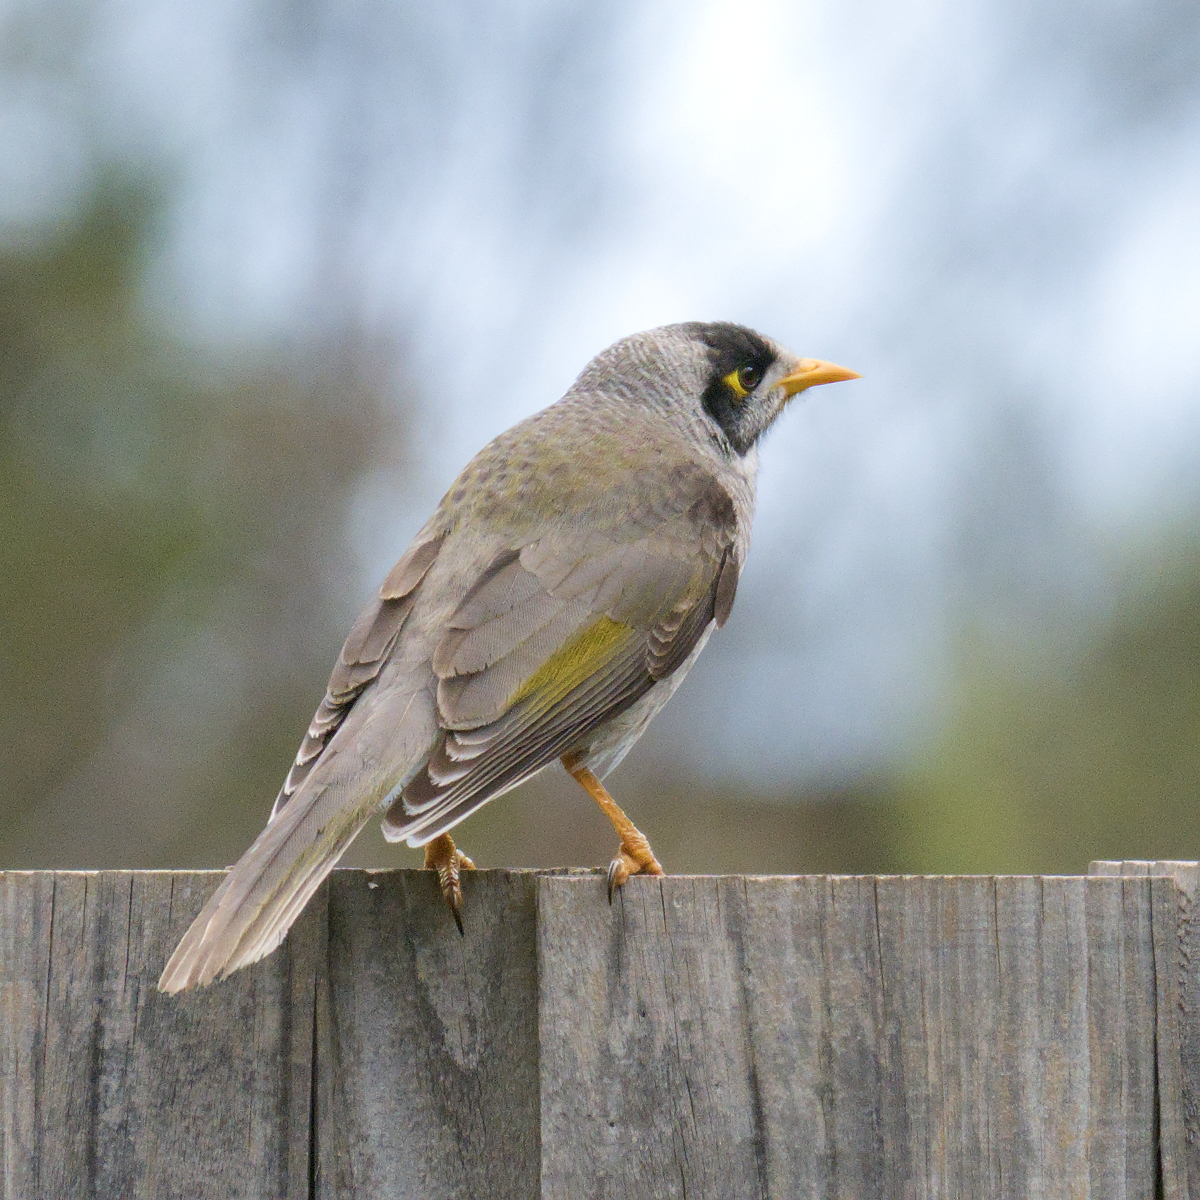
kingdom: Animalia
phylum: Chordata
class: Aves
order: Passeriformes
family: Meliphagidae
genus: Manorina
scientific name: Manorina melanocephala
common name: Noisy miner
